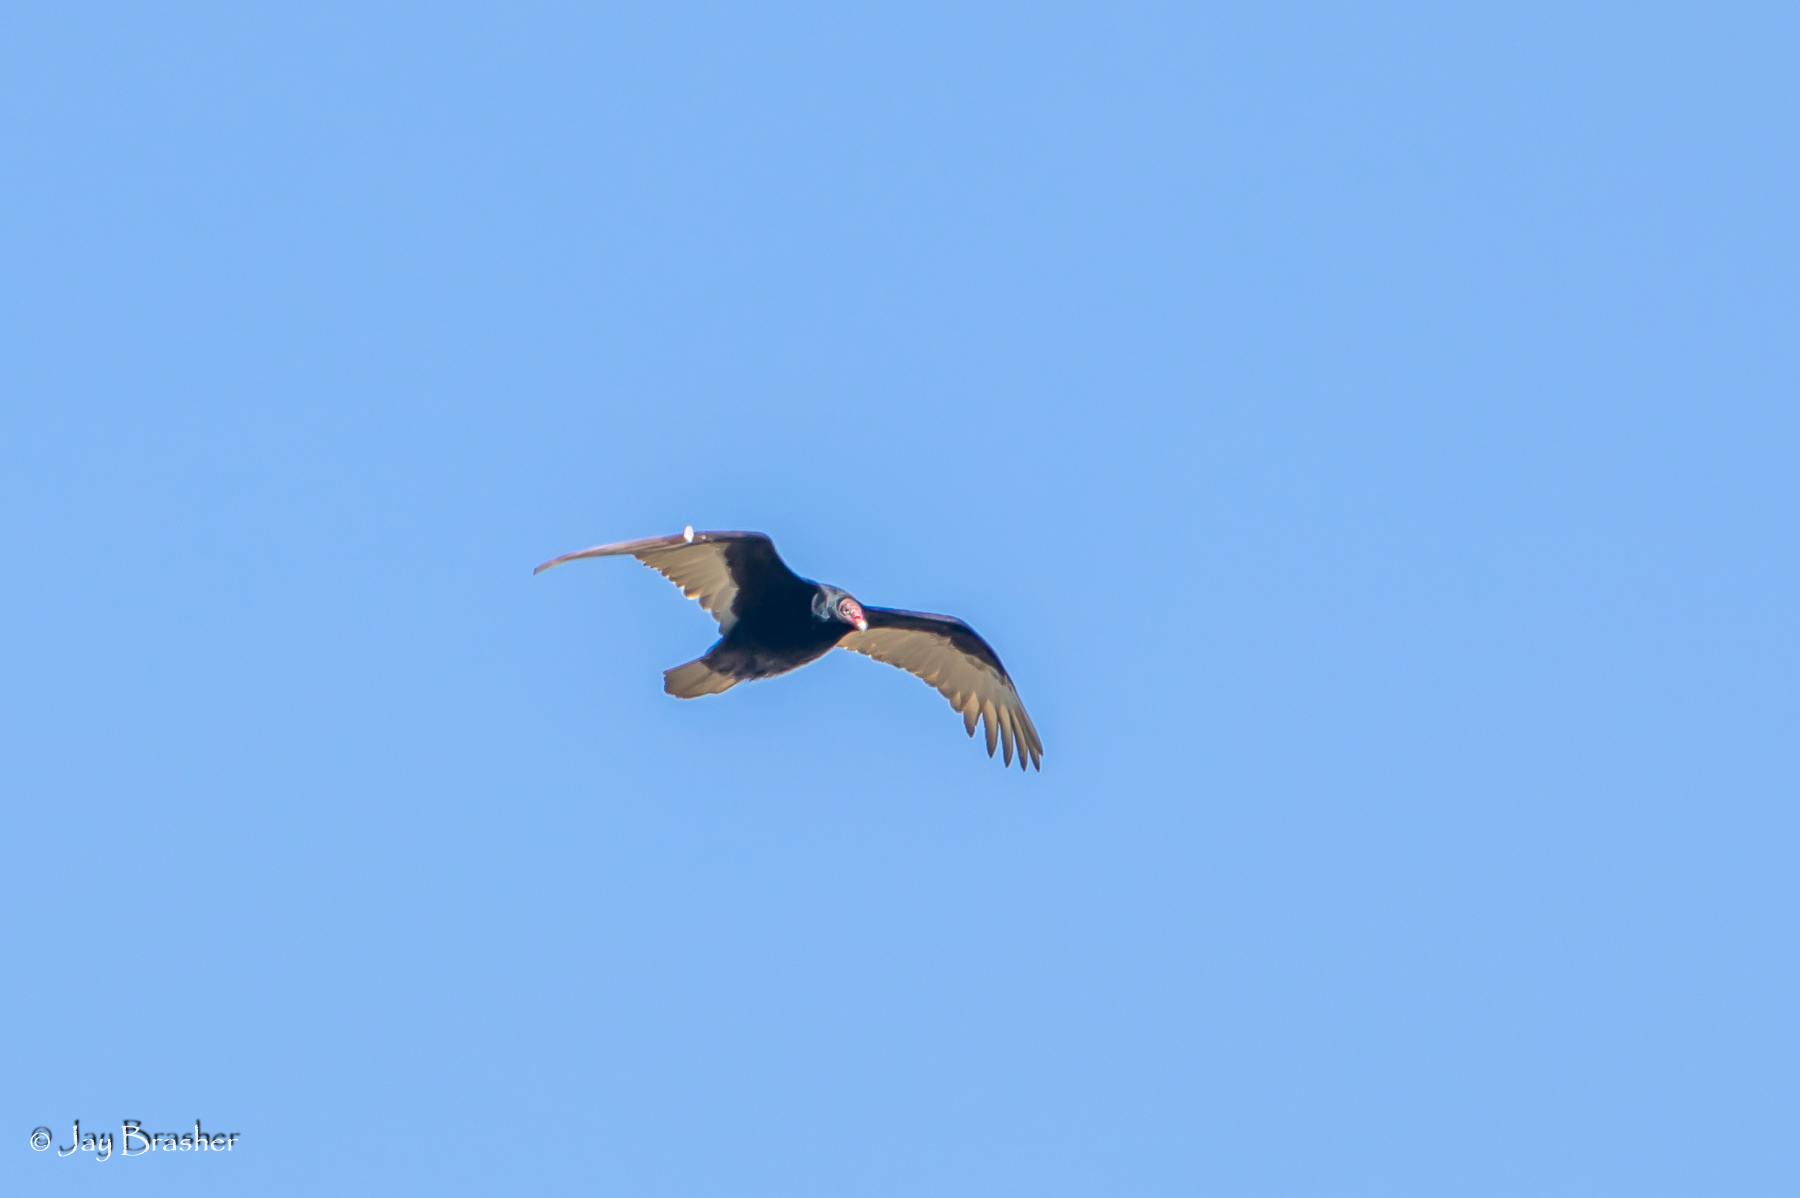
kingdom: Animalia
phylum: Chordata
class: Aves
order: Accipitriformes
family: Cathartidae
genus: Cathartes
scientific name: Cathartes aura
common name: Turkey vulture
